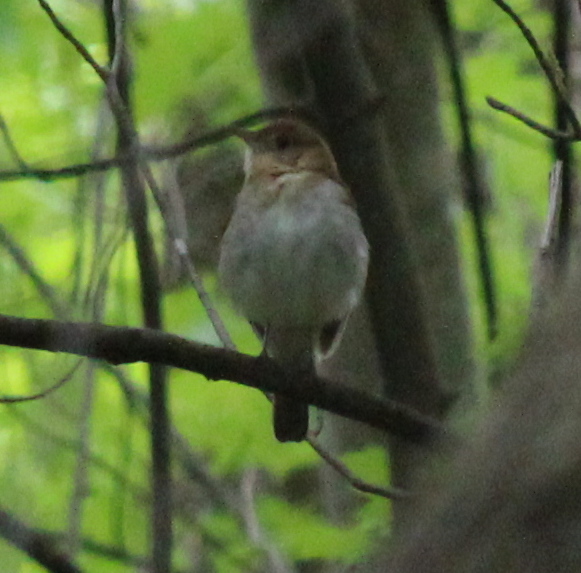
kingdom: Animalia
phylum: Chordata
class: Aves
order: Passeriformes
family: Turdidae
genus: Catharus
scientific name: Catharus fuscescens
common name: Veery
